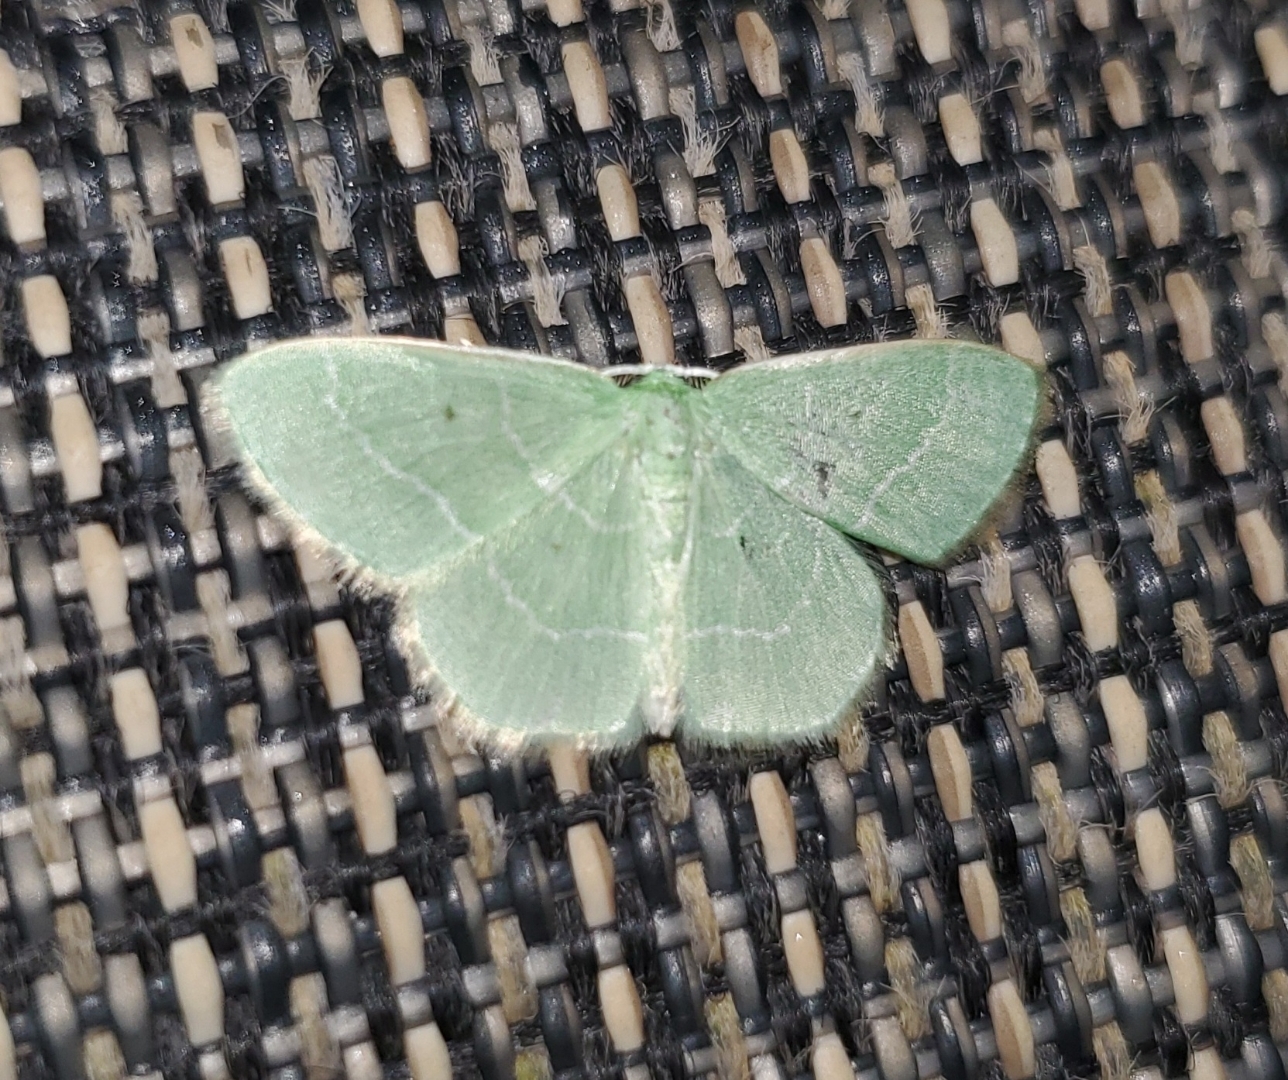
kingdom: Animalia
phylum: Arthropoda
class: Insecta
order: Lepidoptera
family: Geometridae
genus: Nemoria
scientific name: Nemoria elfa
